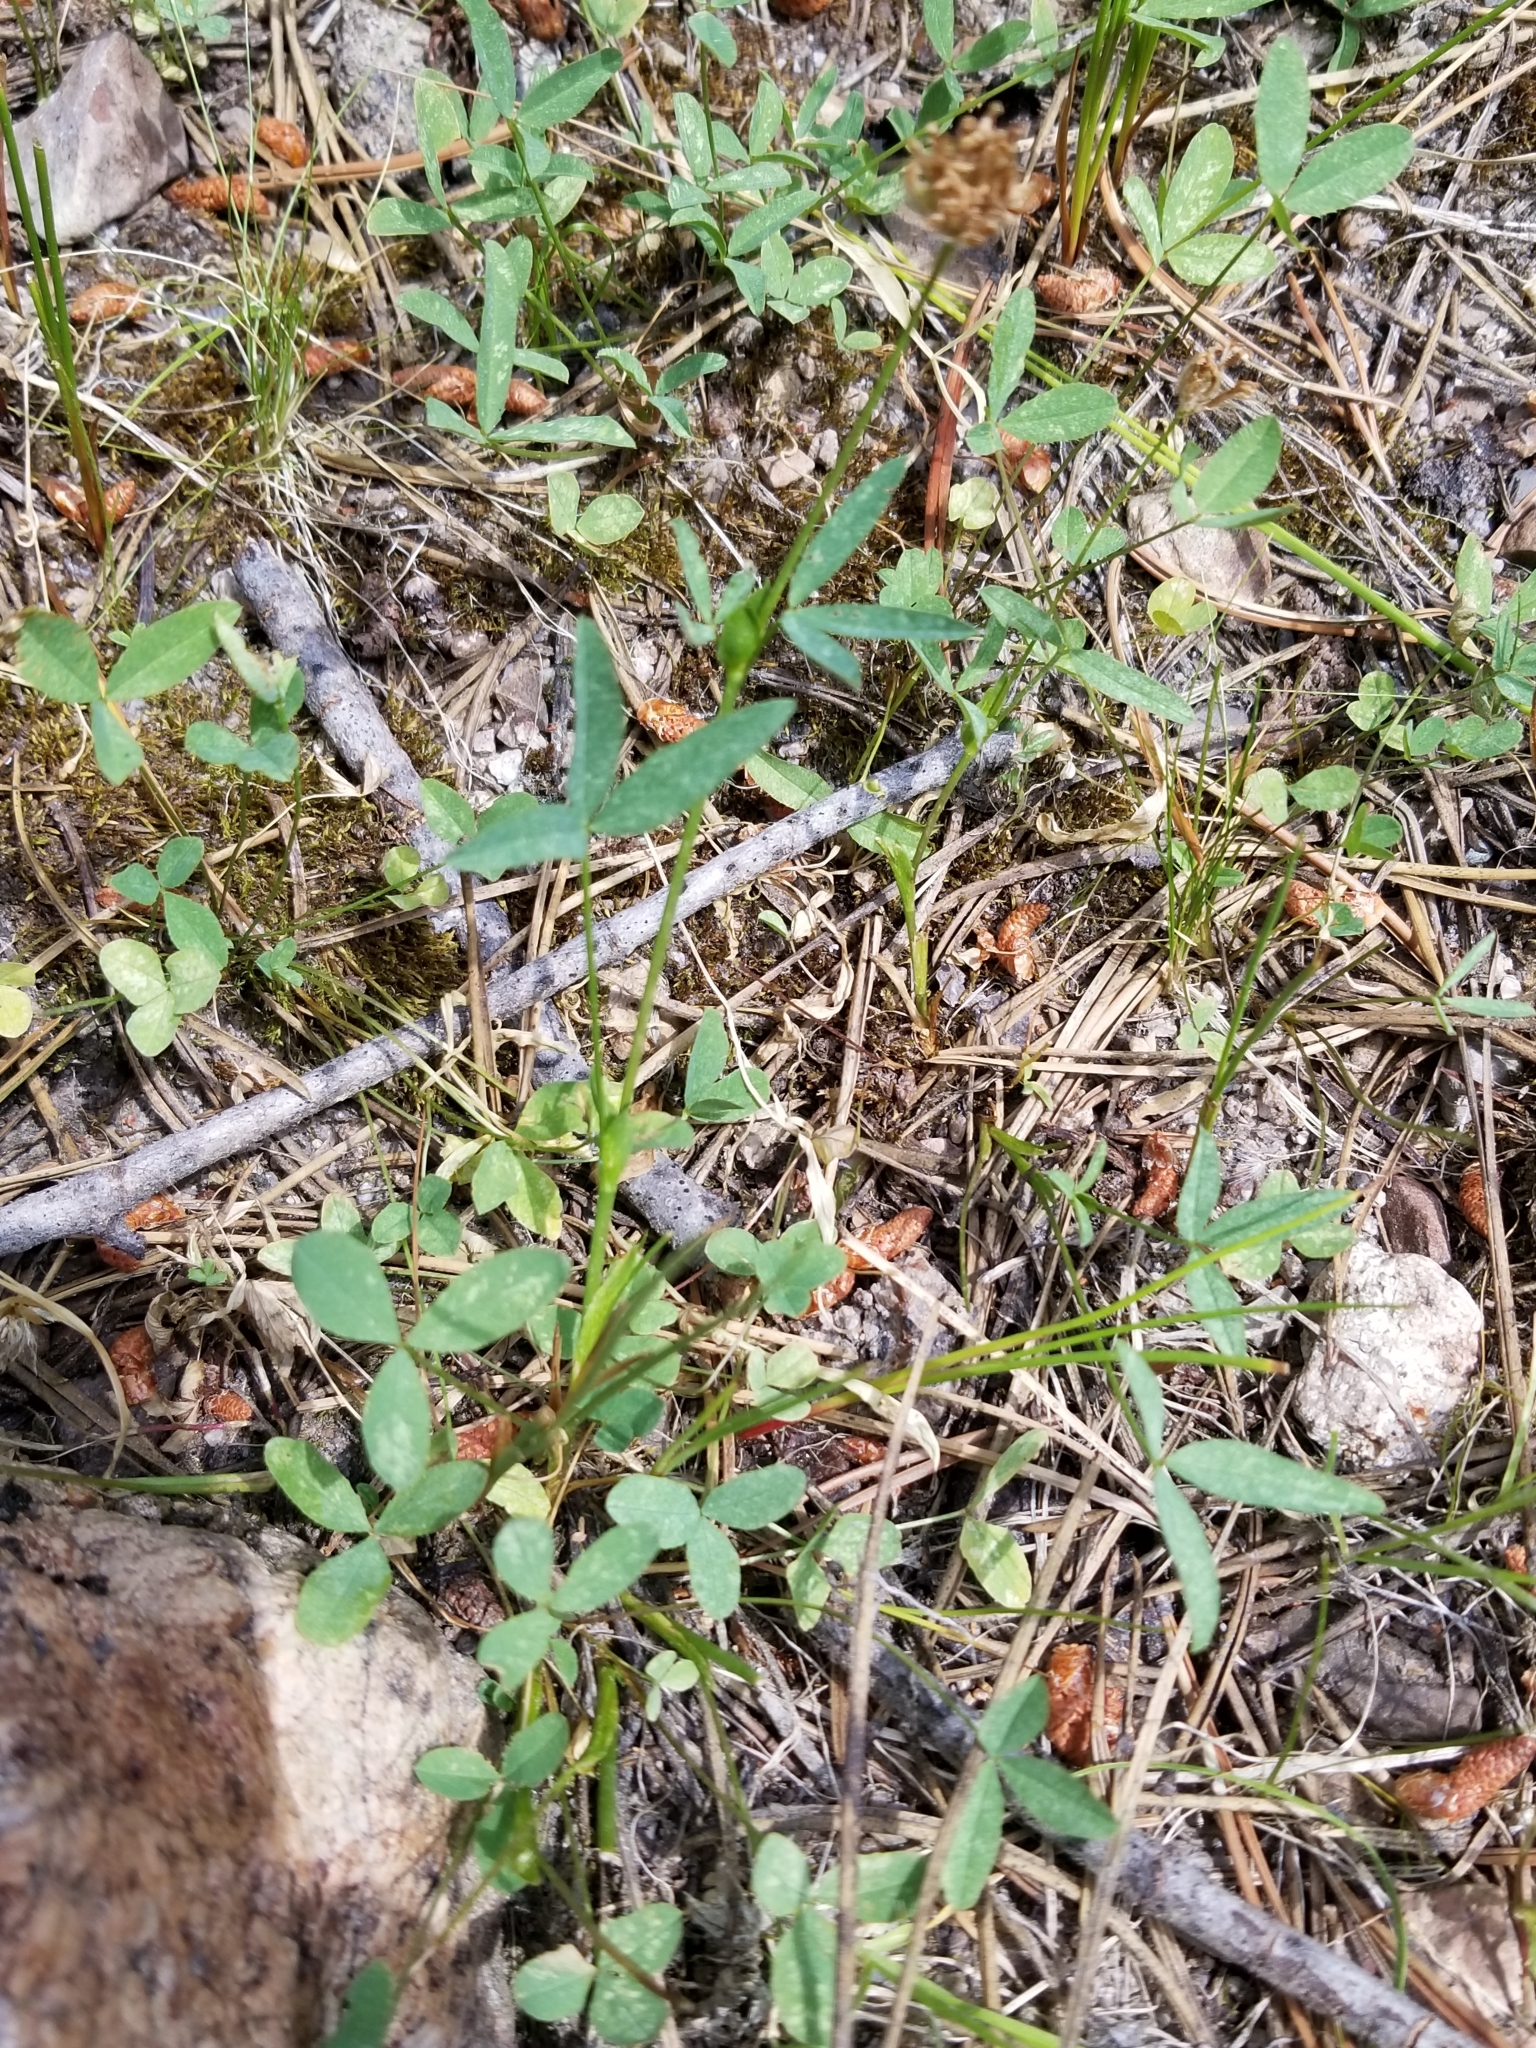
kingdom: Plantae
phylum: Tracheophyta
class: Magnoliopsida
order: Fabales
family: Fabaceae
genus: Trifolium
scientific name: Trifolium longipes
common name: Long-stalk clover
